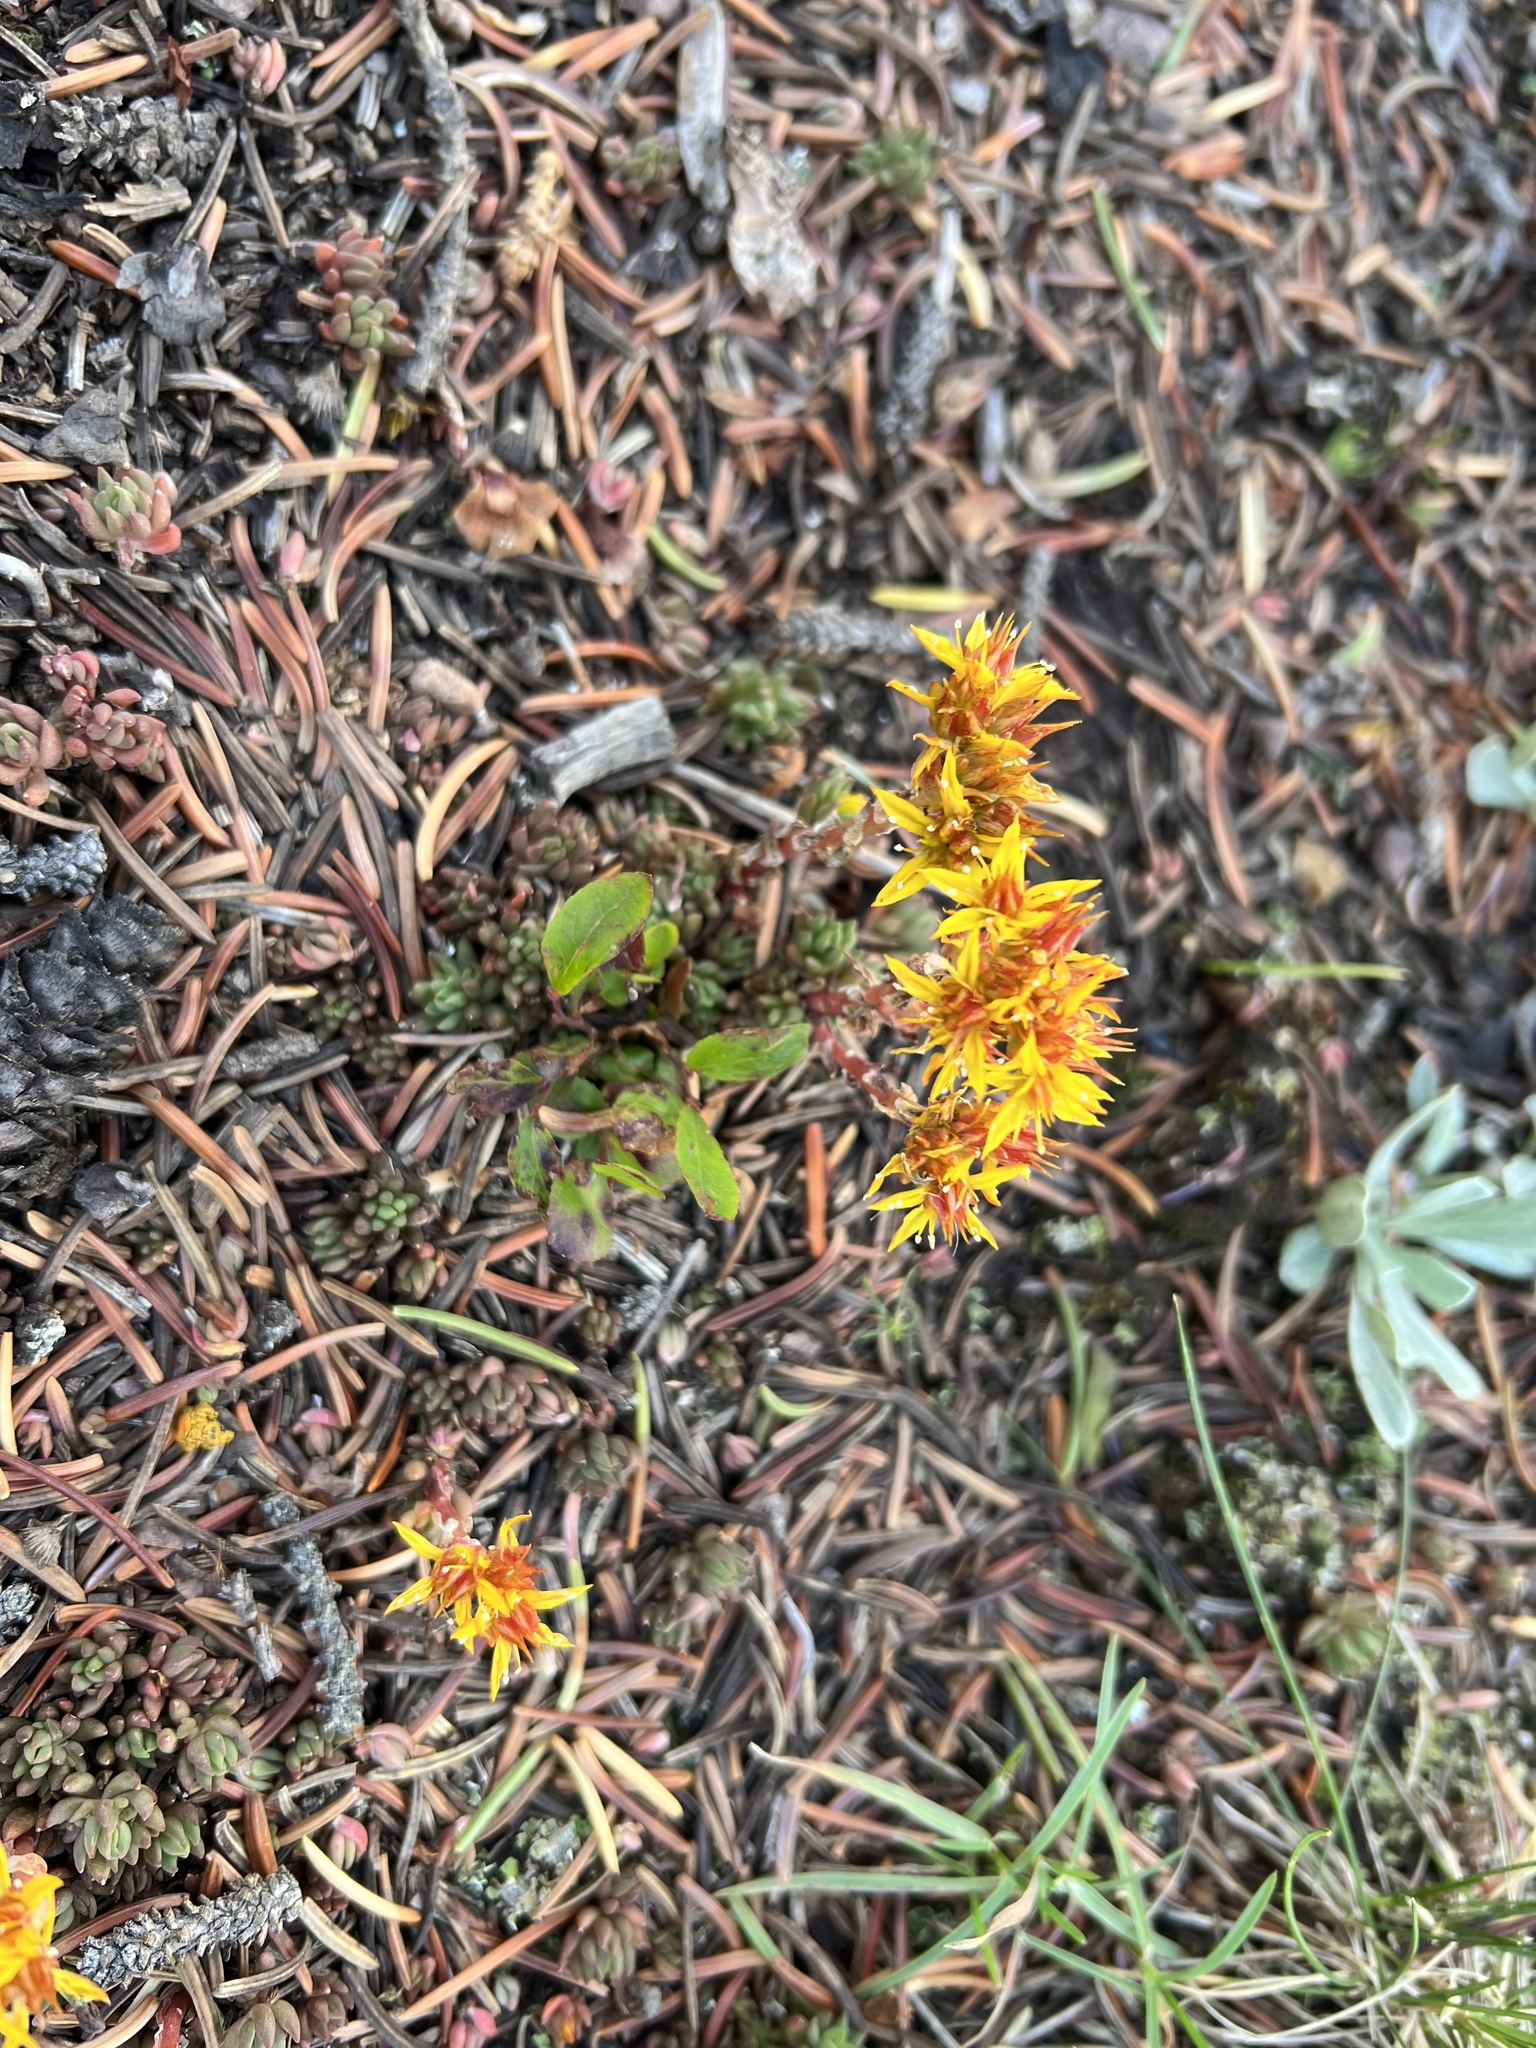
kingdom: Plantae
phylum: Tracheophyta
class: Magnoliopsida
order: Saxifragales
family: Crassulaceae
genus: Sedum
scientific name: Sedum lanceolatum
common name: Common stonecrop
